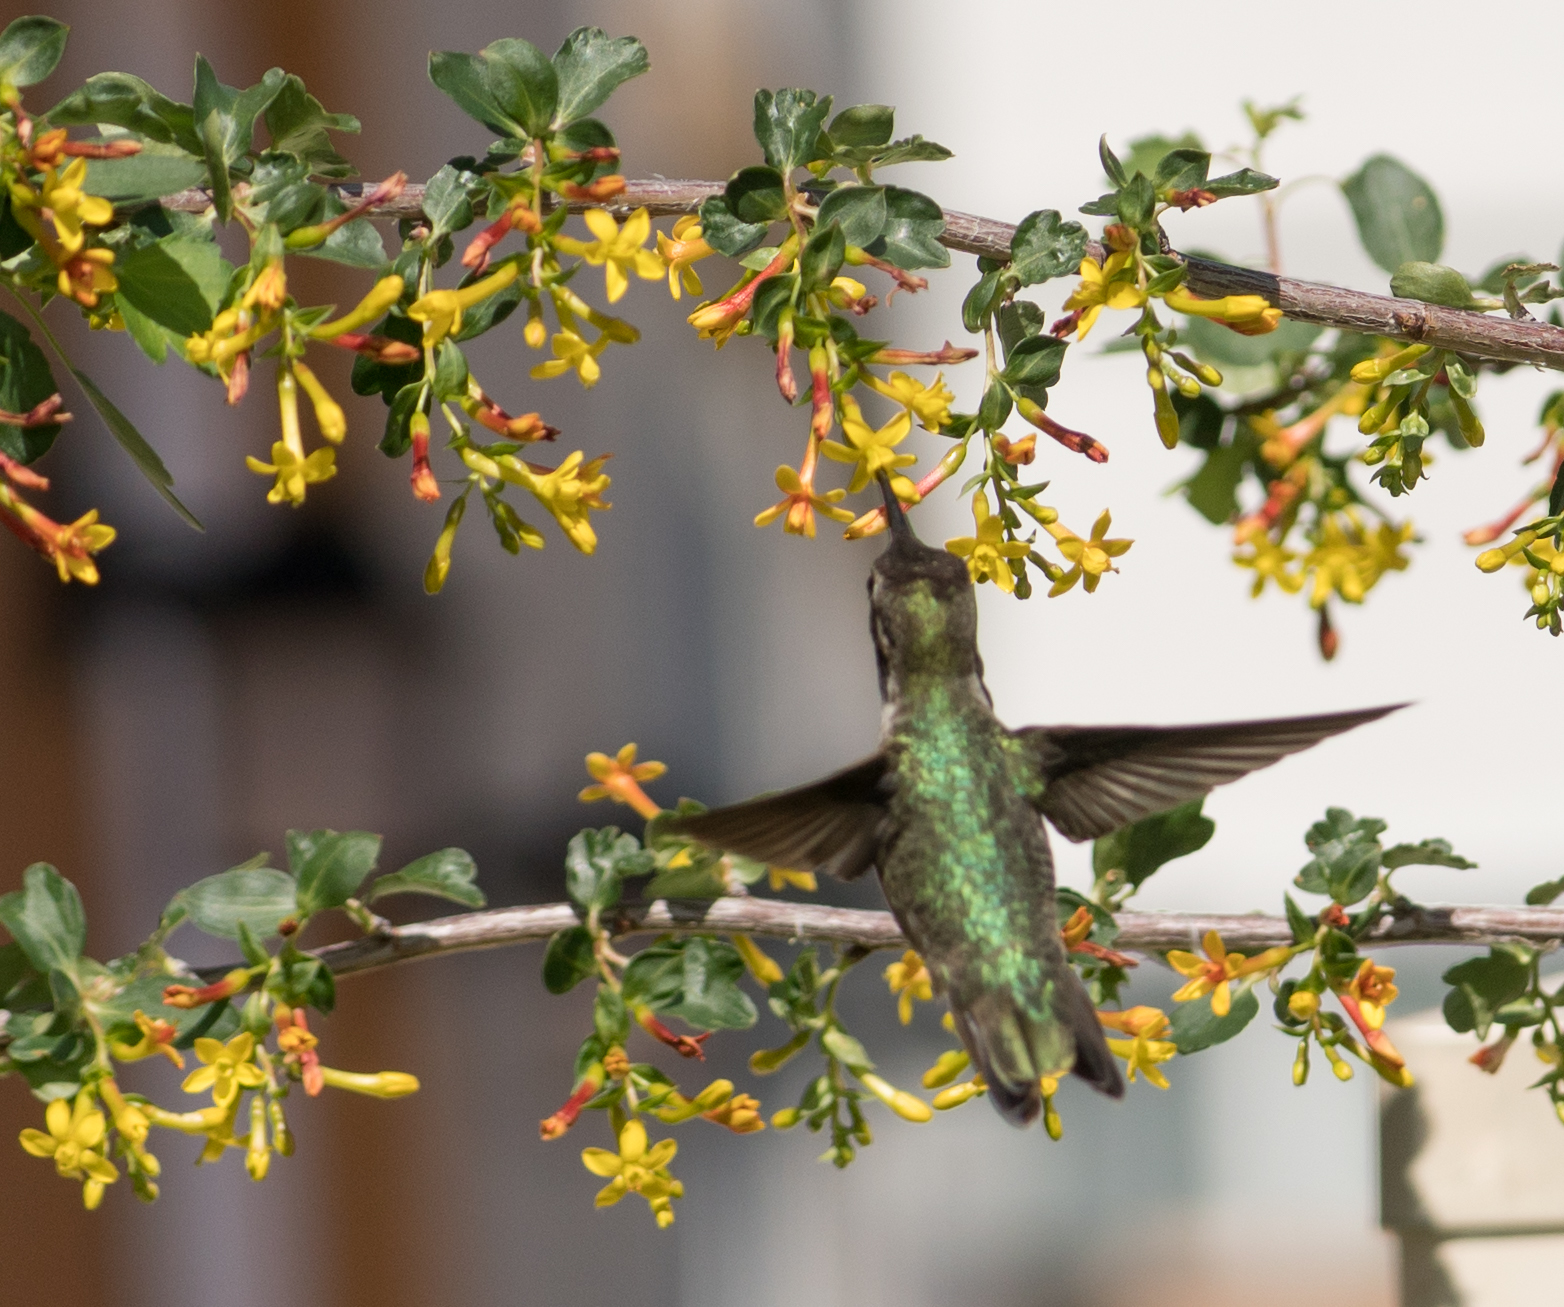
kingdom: Animalia
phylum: Chordata
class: Aves
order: Apodiformes
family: Trochilidae
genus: Calypte
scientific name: Calypte anna
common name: Anna's hummingbird
